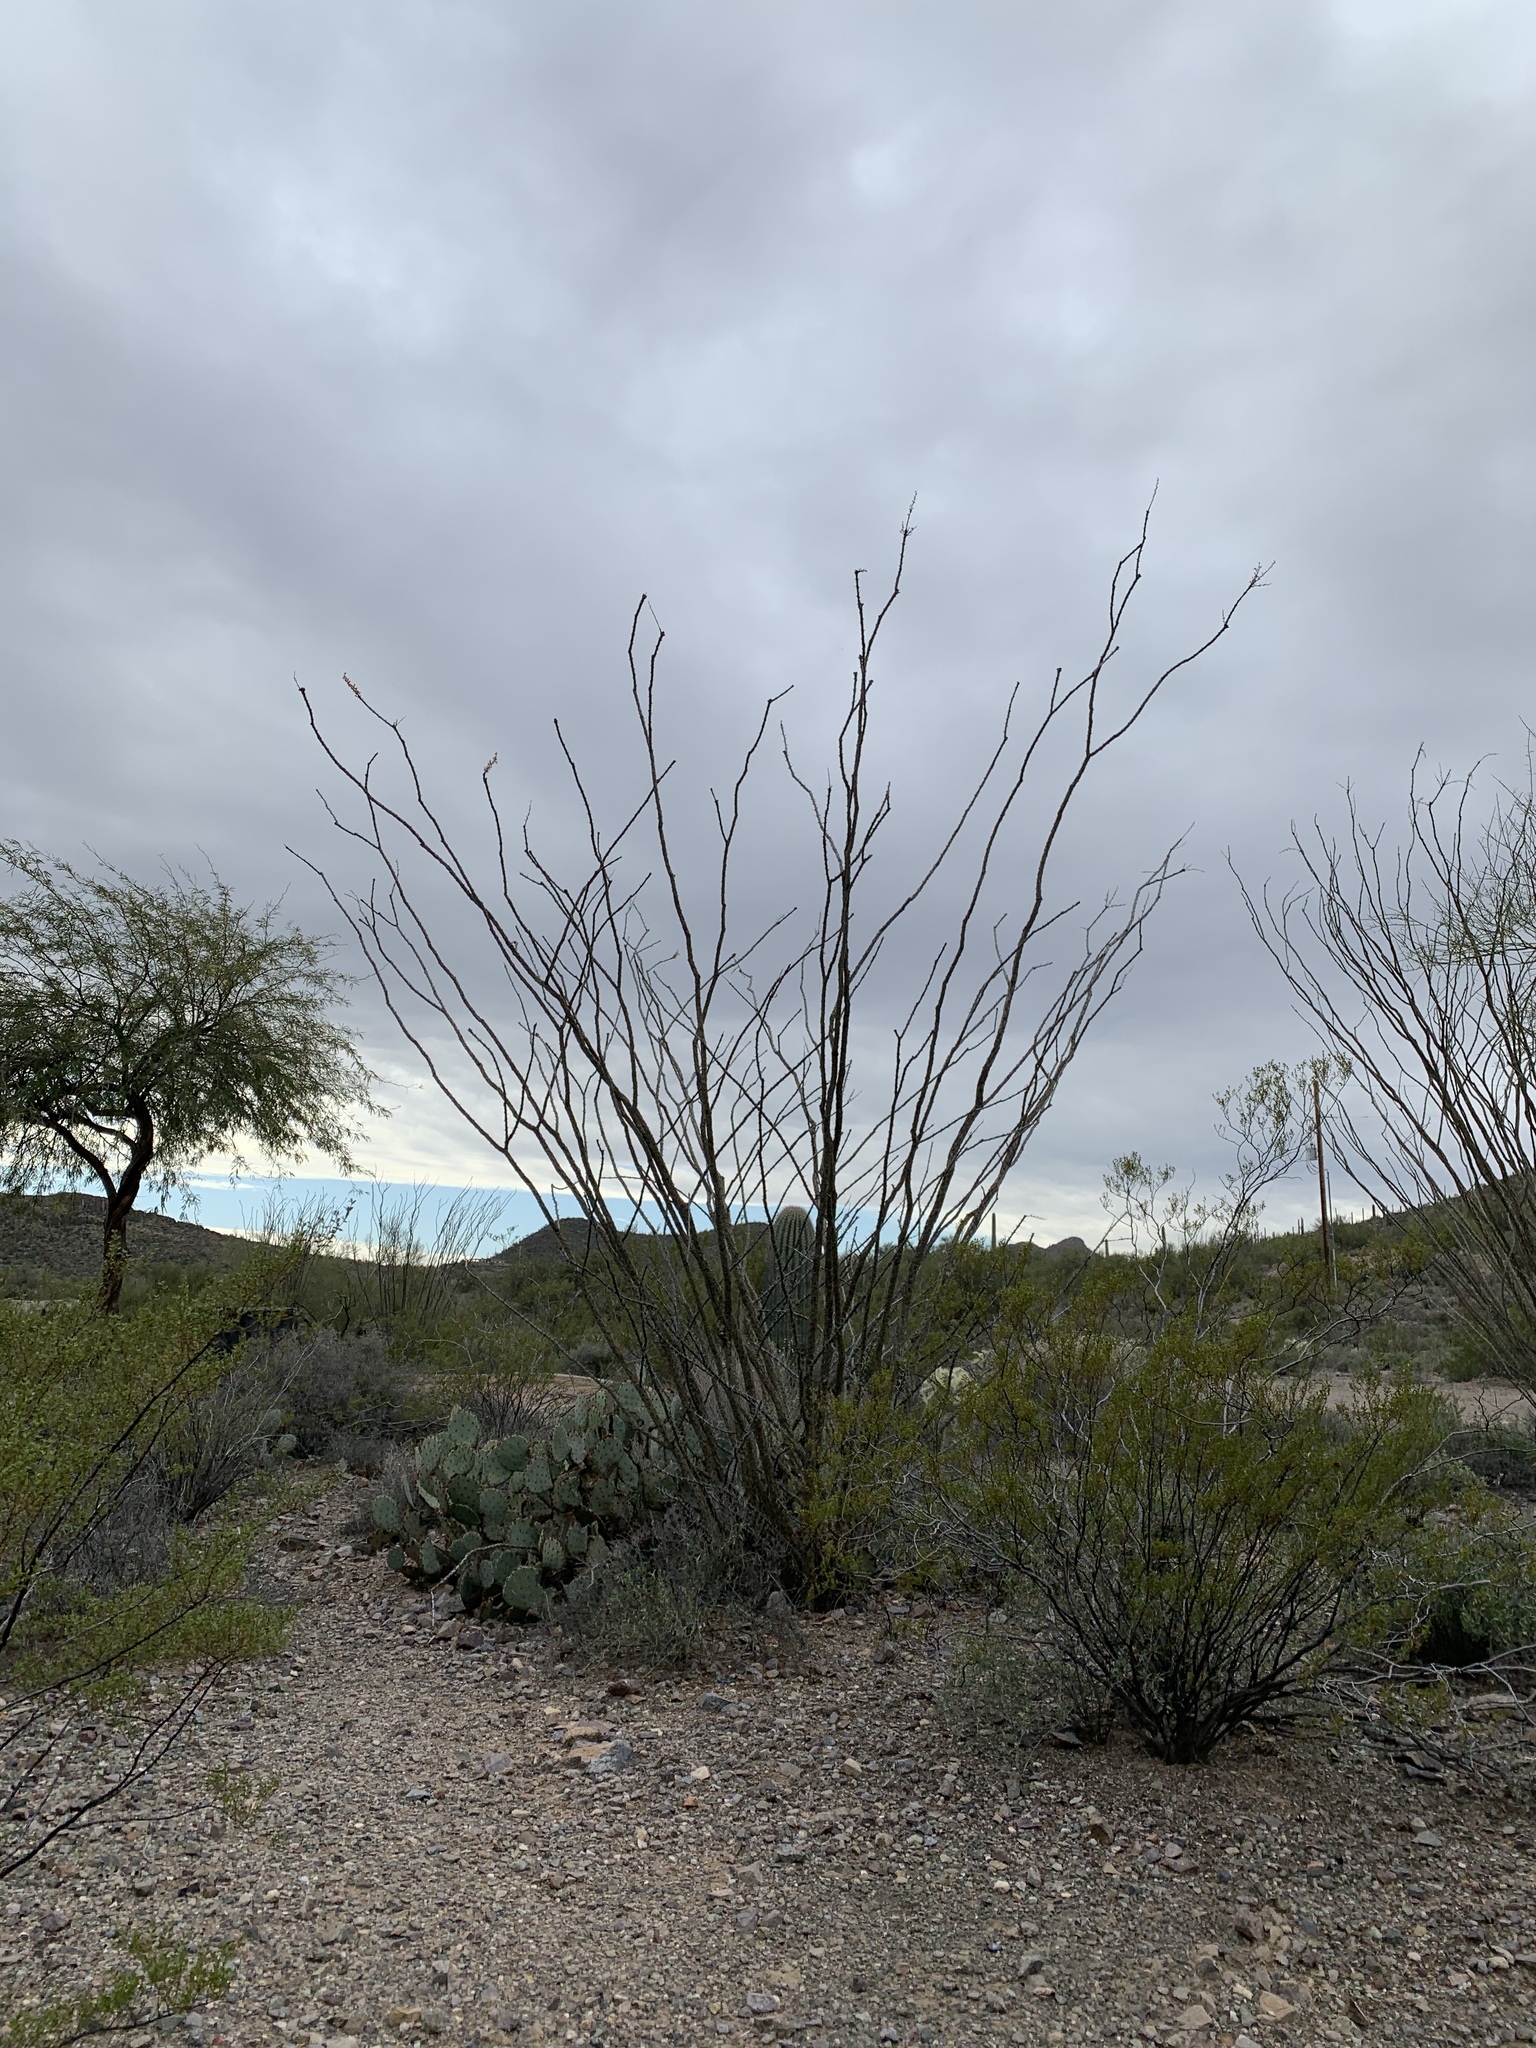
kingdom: Plantae
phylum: Tracheophyta
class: Magnoliopsida
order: Ericales
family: Fouquieriaceae
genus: Fouquieria
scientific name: Fouquieria splendens
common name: Vine-cactus
